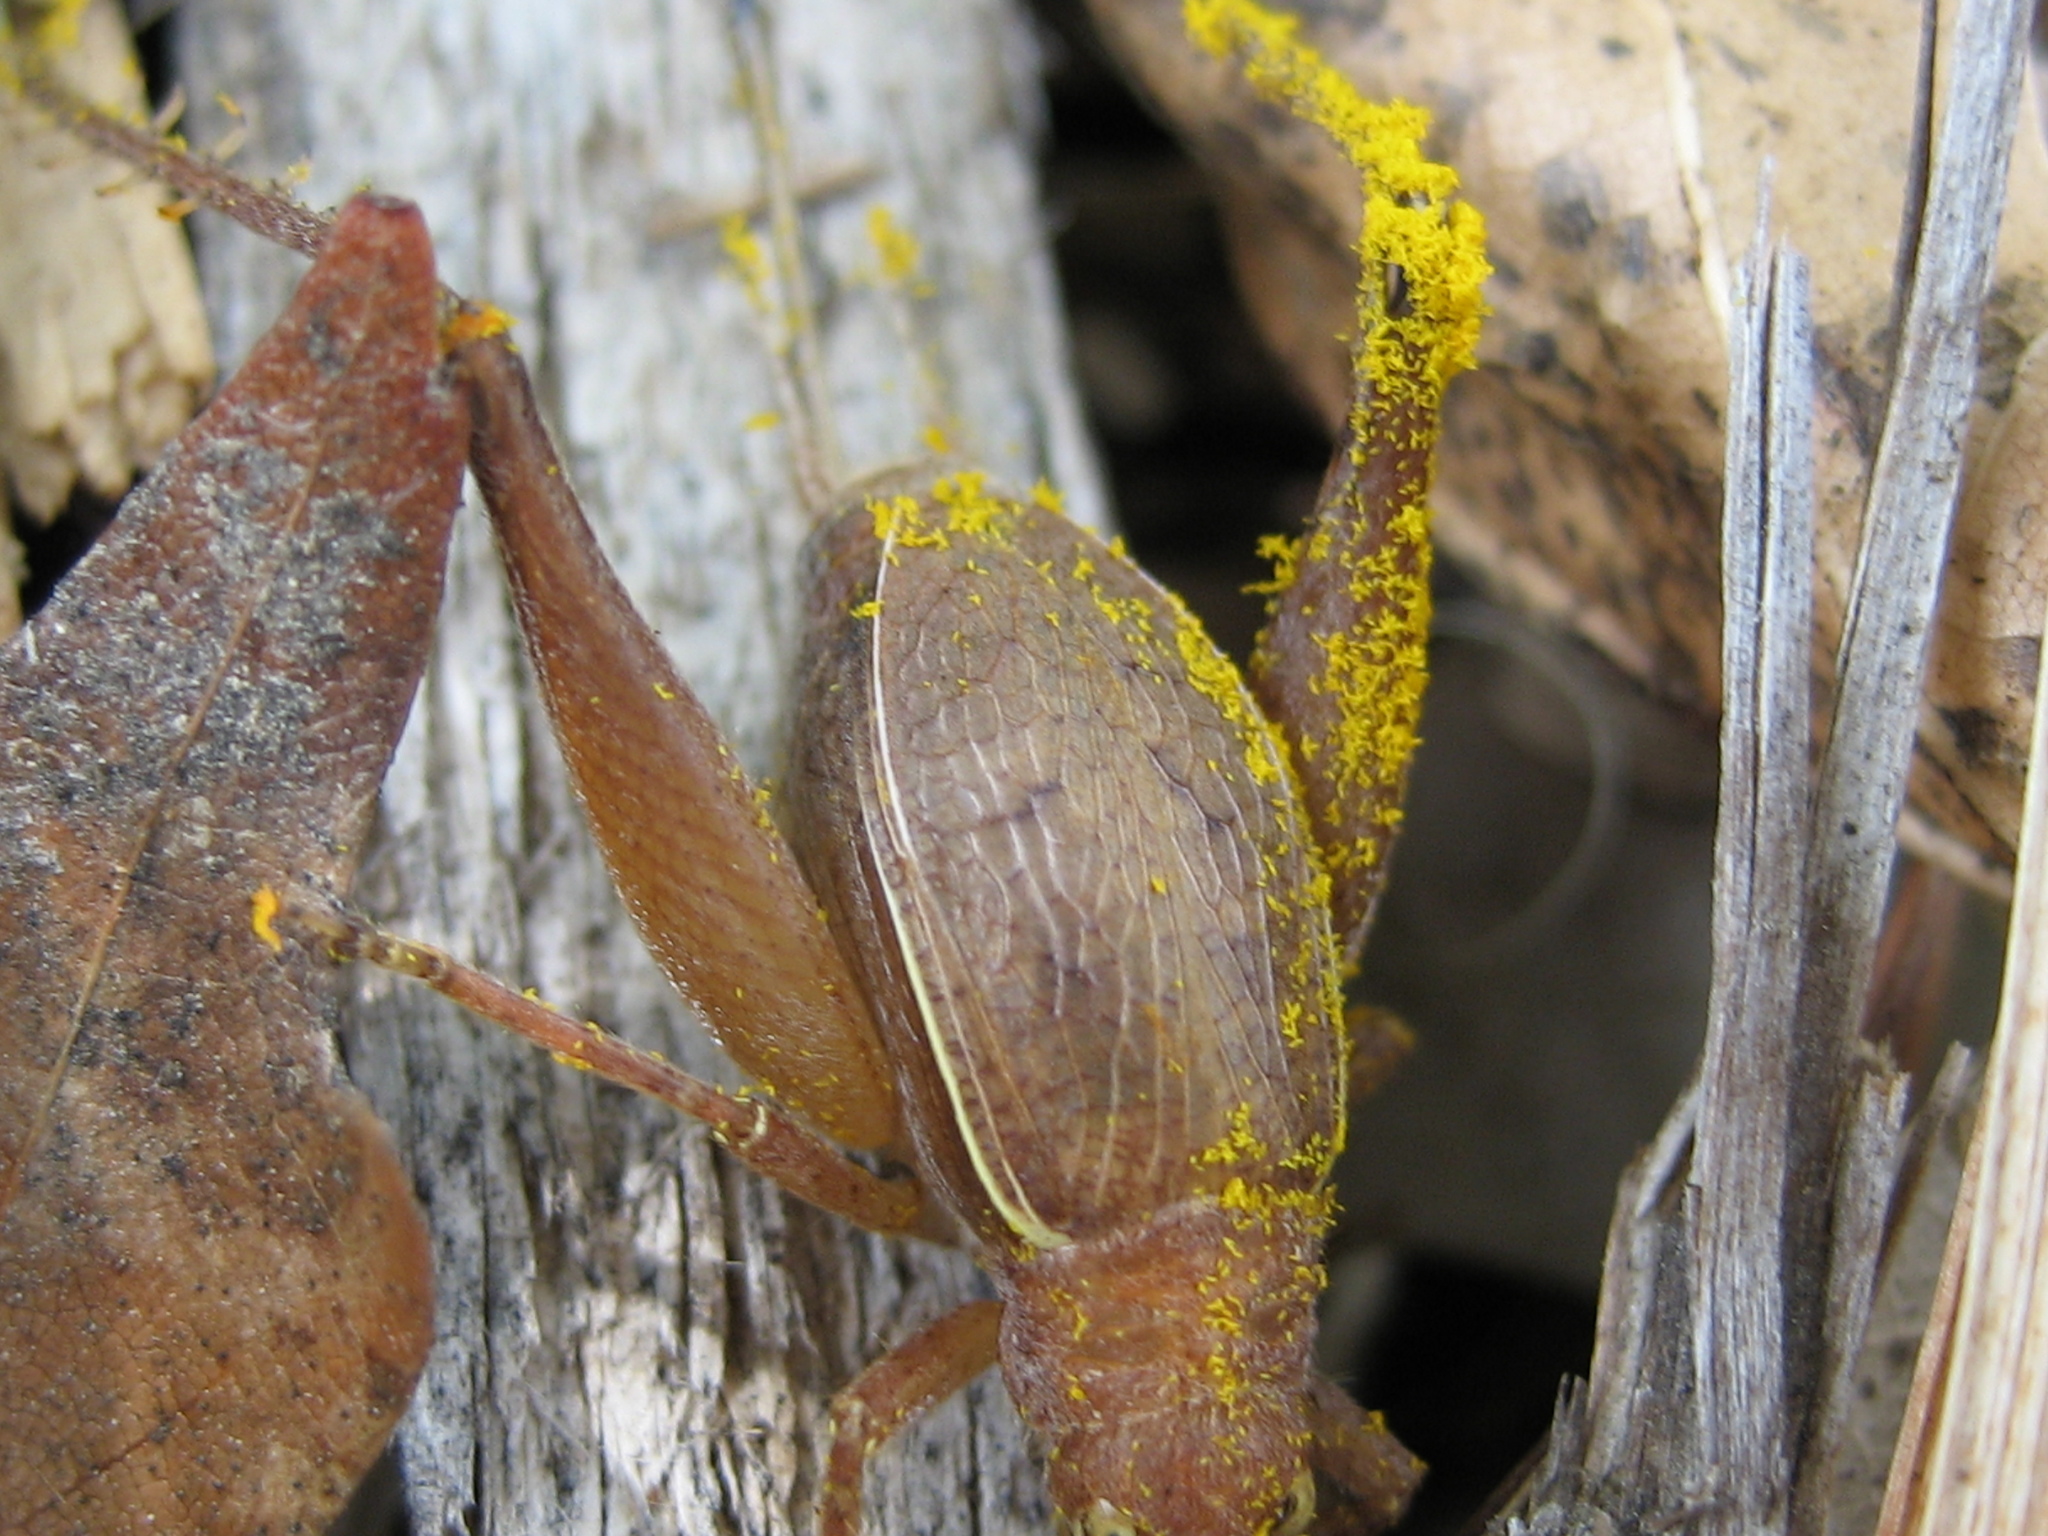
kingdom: Animalia
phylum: Arthropoda
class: Insecta
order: Orthoptera
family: Gryllidae
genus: Hapithus
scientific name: Hapithus agitator
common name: Restless bush cricket
